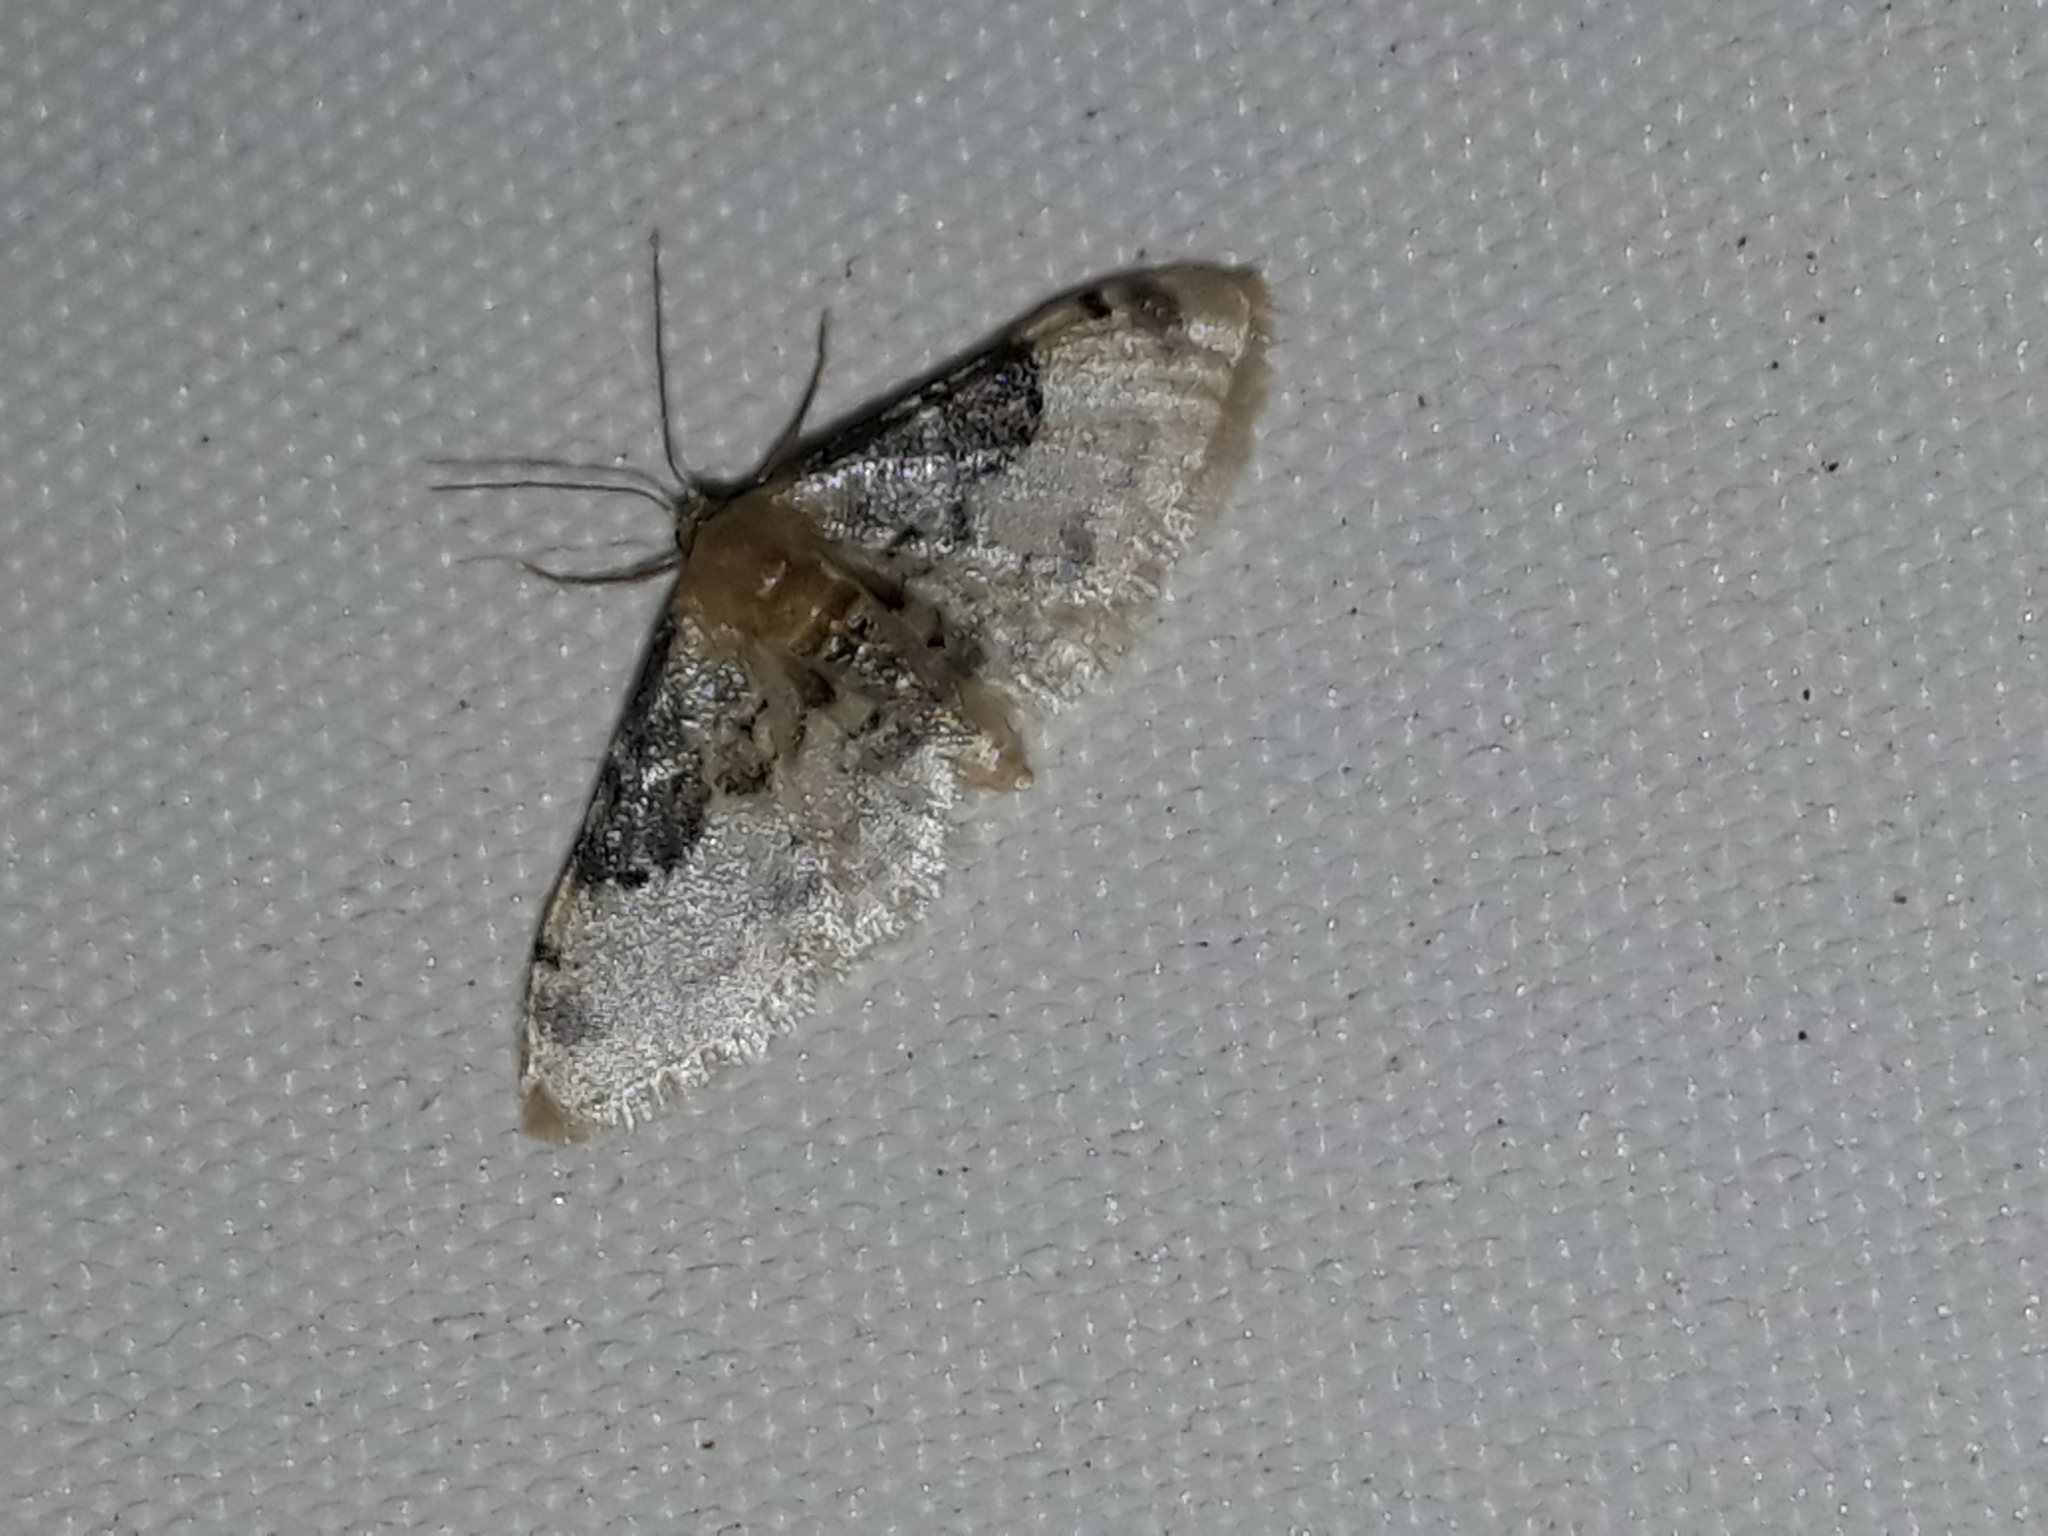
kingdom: Animalia
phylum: Arthropoda
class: Insecta
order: Lepidoptera
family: Geometridae
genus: Idaea
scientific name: Idaea rusticata
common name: Least carpet
